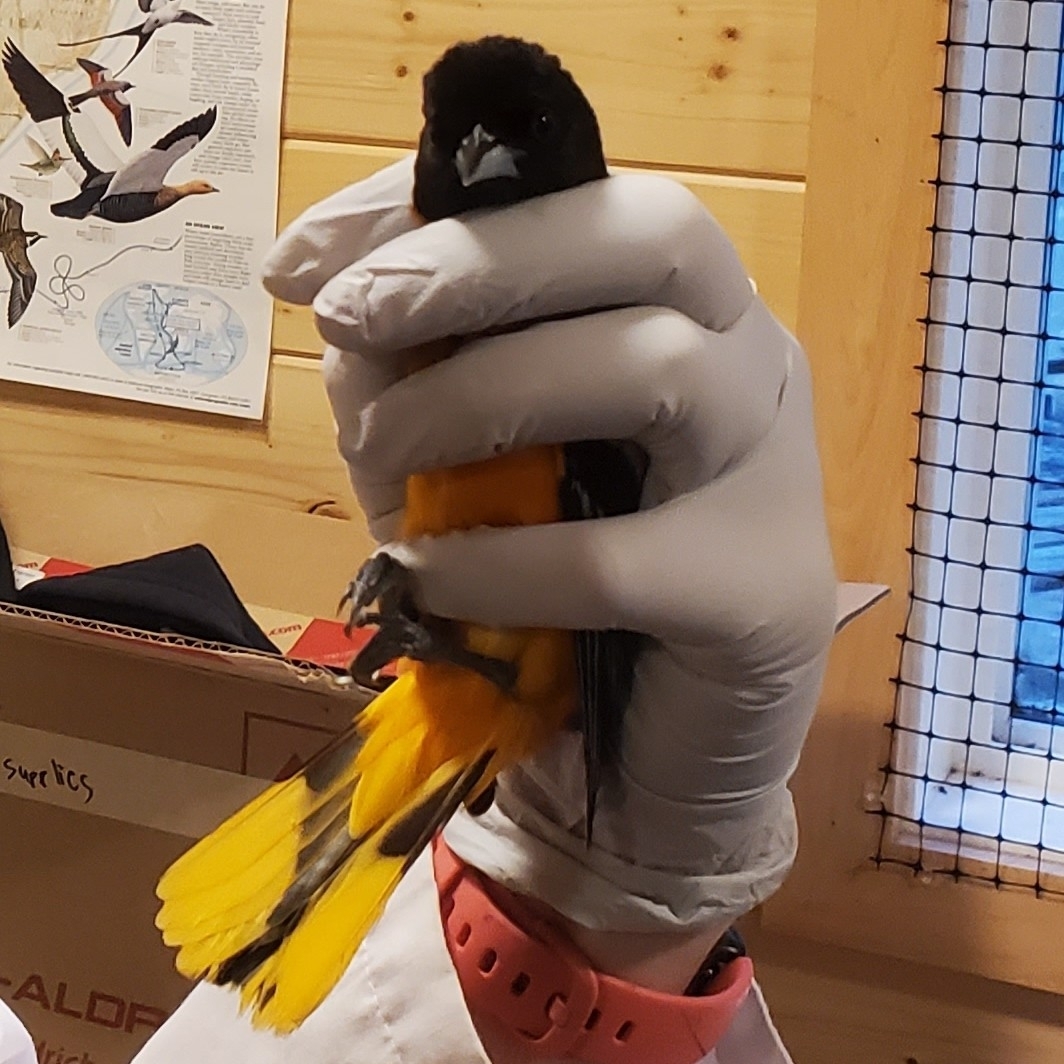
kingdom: Animalia
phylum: Chordata
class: Aves
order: Passeriformes
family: Icteridae
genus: Icterus
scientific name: Icterus galbula
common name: Baltimore oriole
